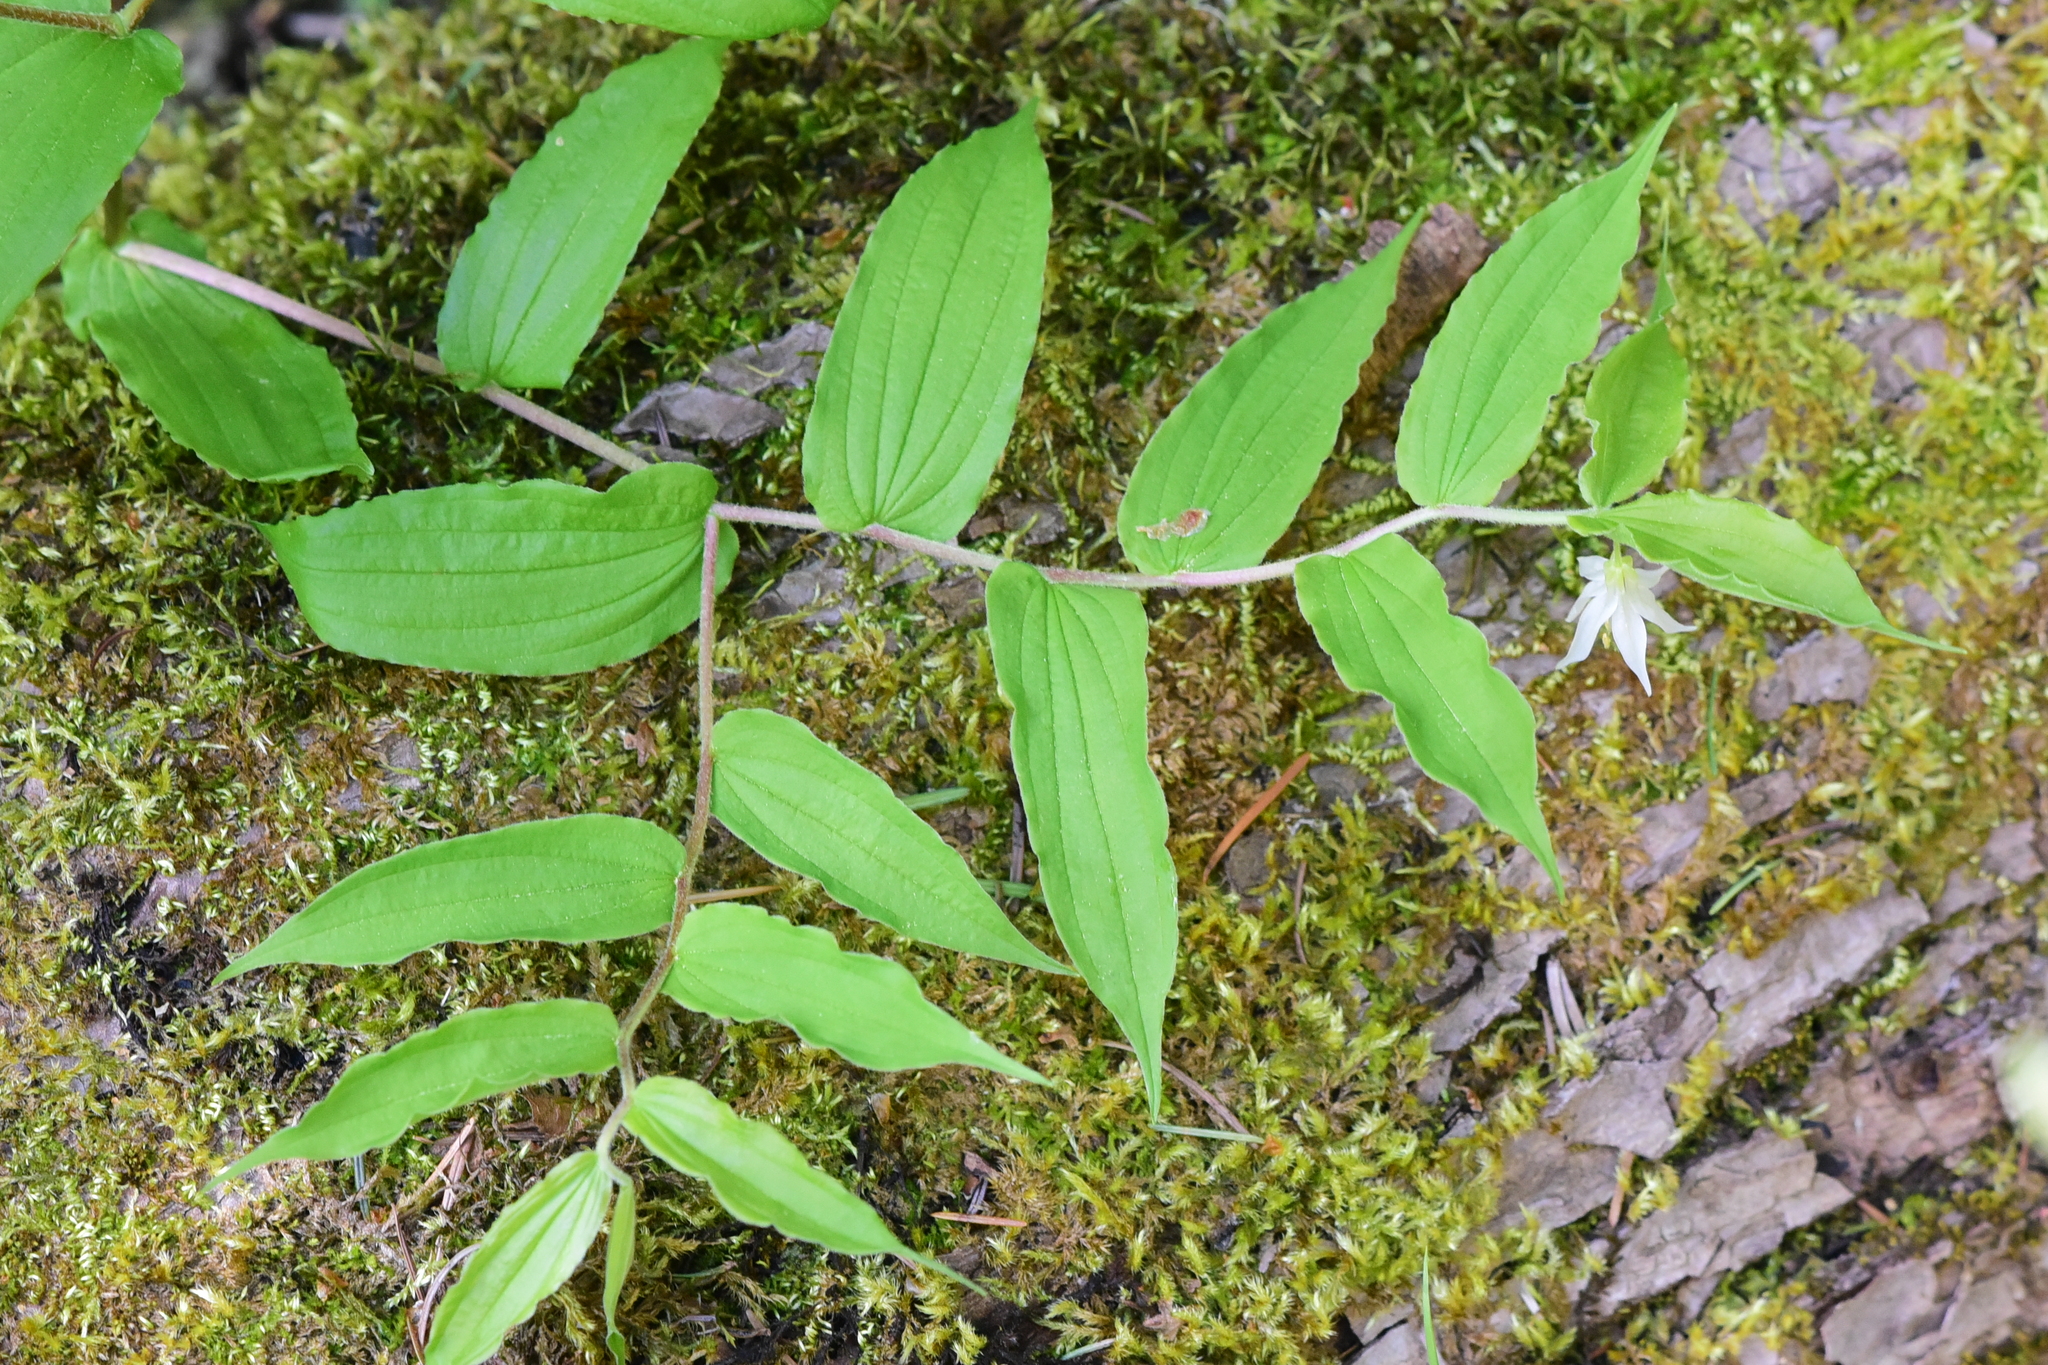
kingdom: Plantae
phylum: Tracheophyta
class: Liliopsida
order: Liliales
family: Liliaceae
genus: Prosartes
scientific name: Prosartes hookeri
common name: Fairy-bells
